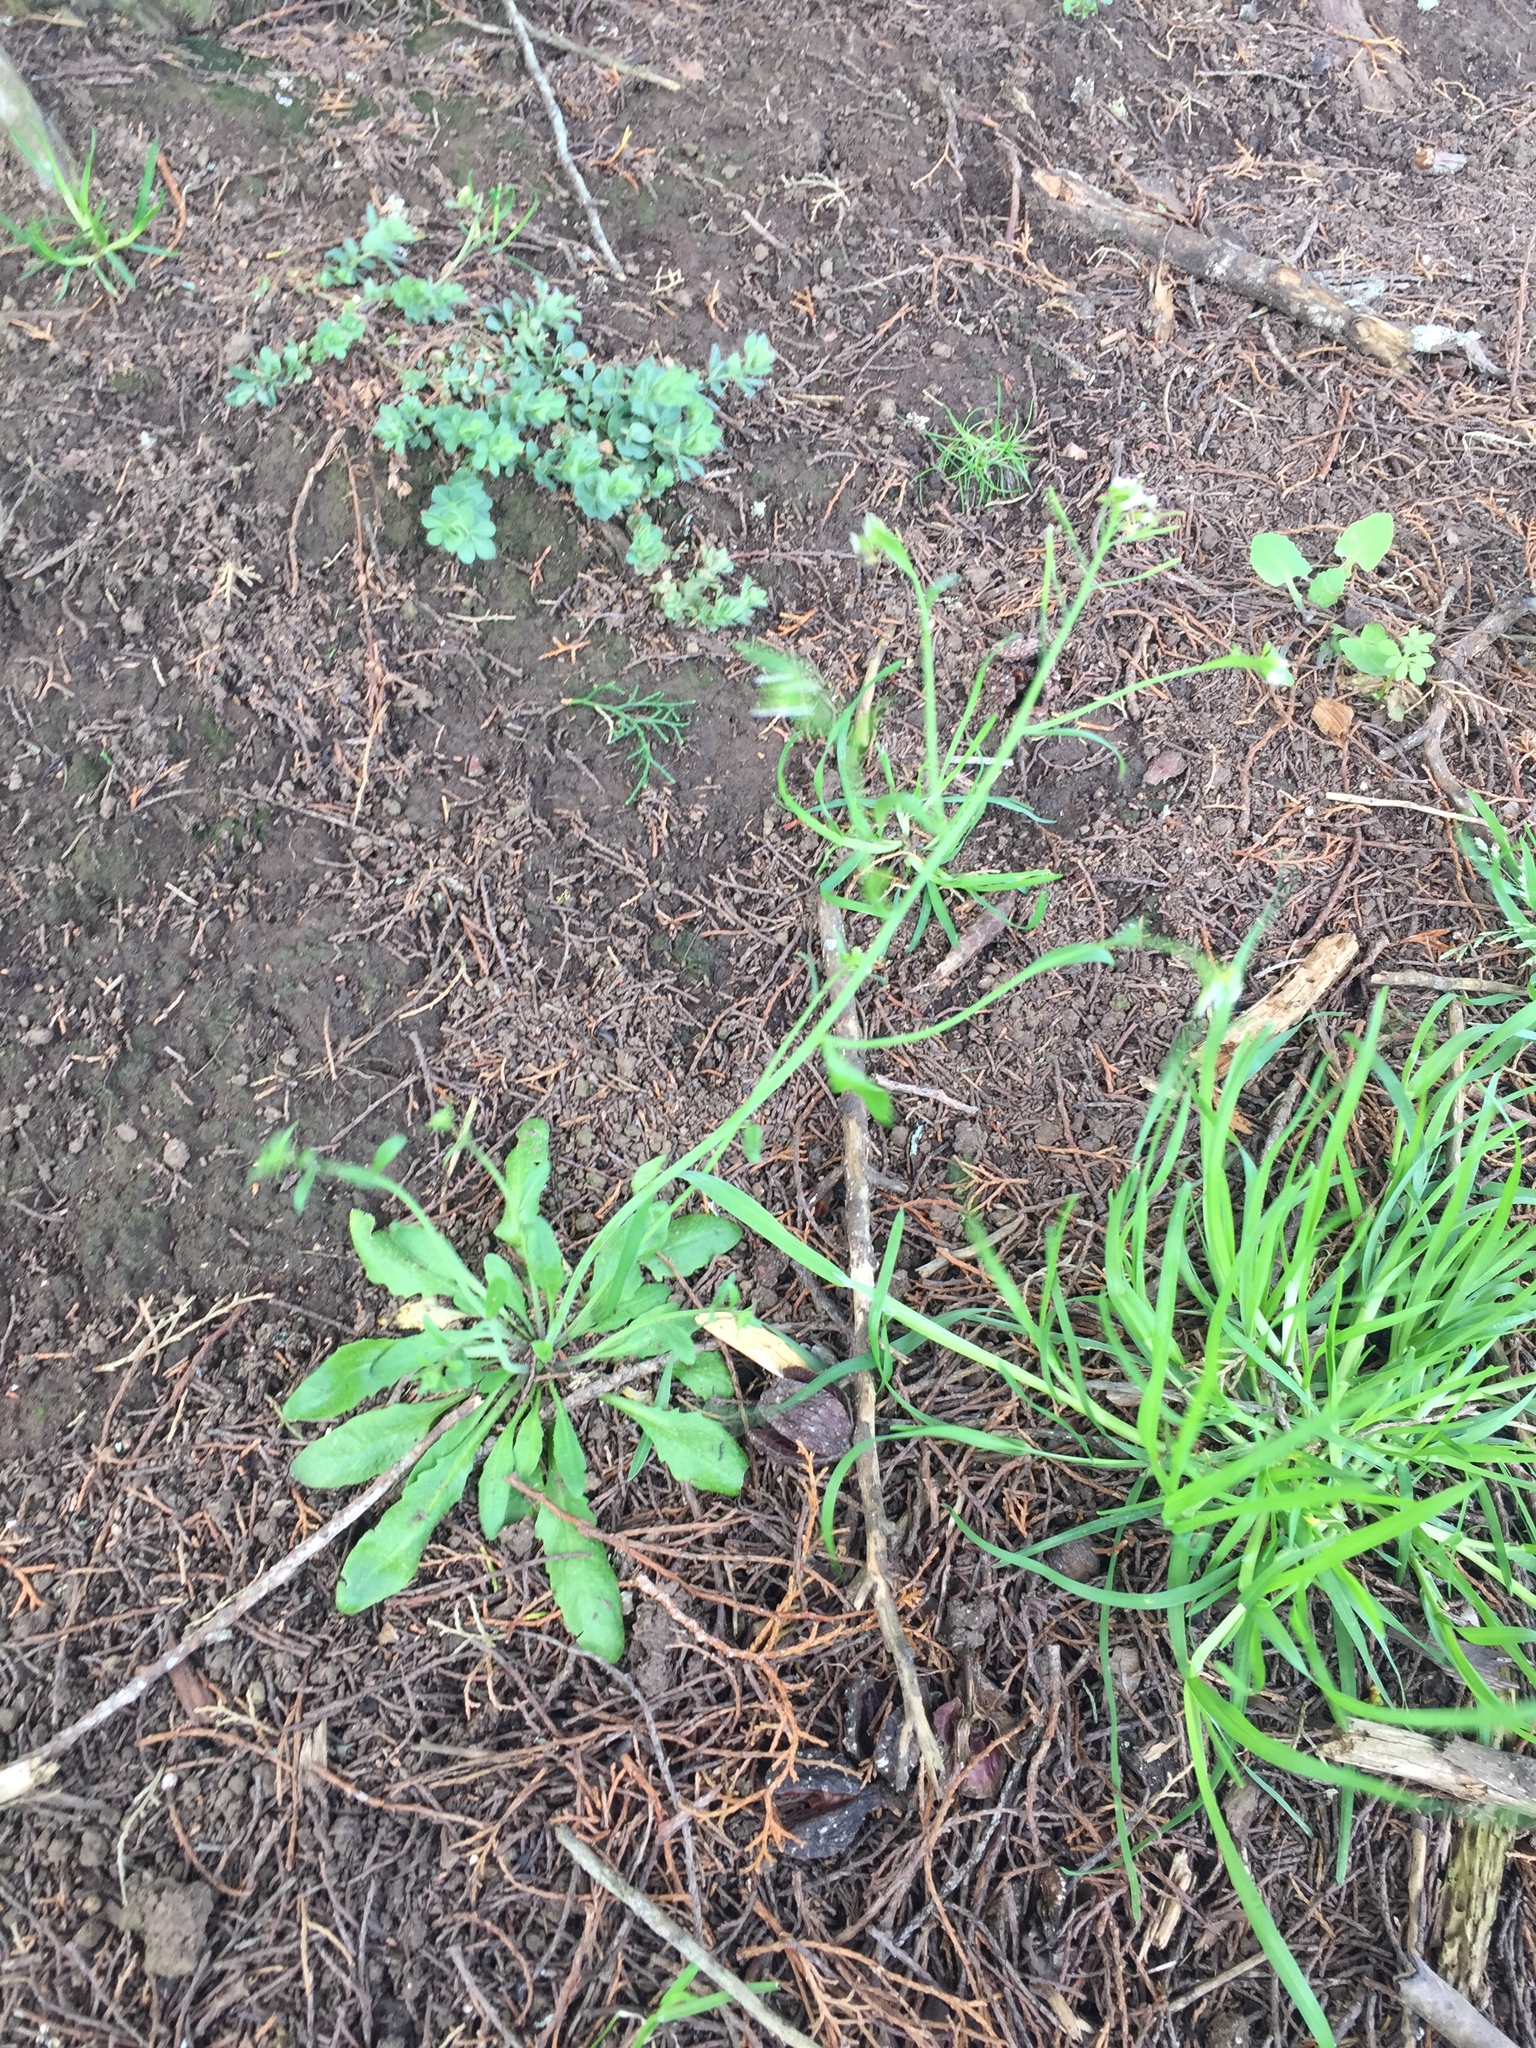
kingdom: Plantae
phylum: Tracheophyta
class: Magnoliopsida
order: Brassicales
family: Brassicaceae
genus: Arabidopsis
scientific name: Arabidopsis thaliana
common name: Thale cress
